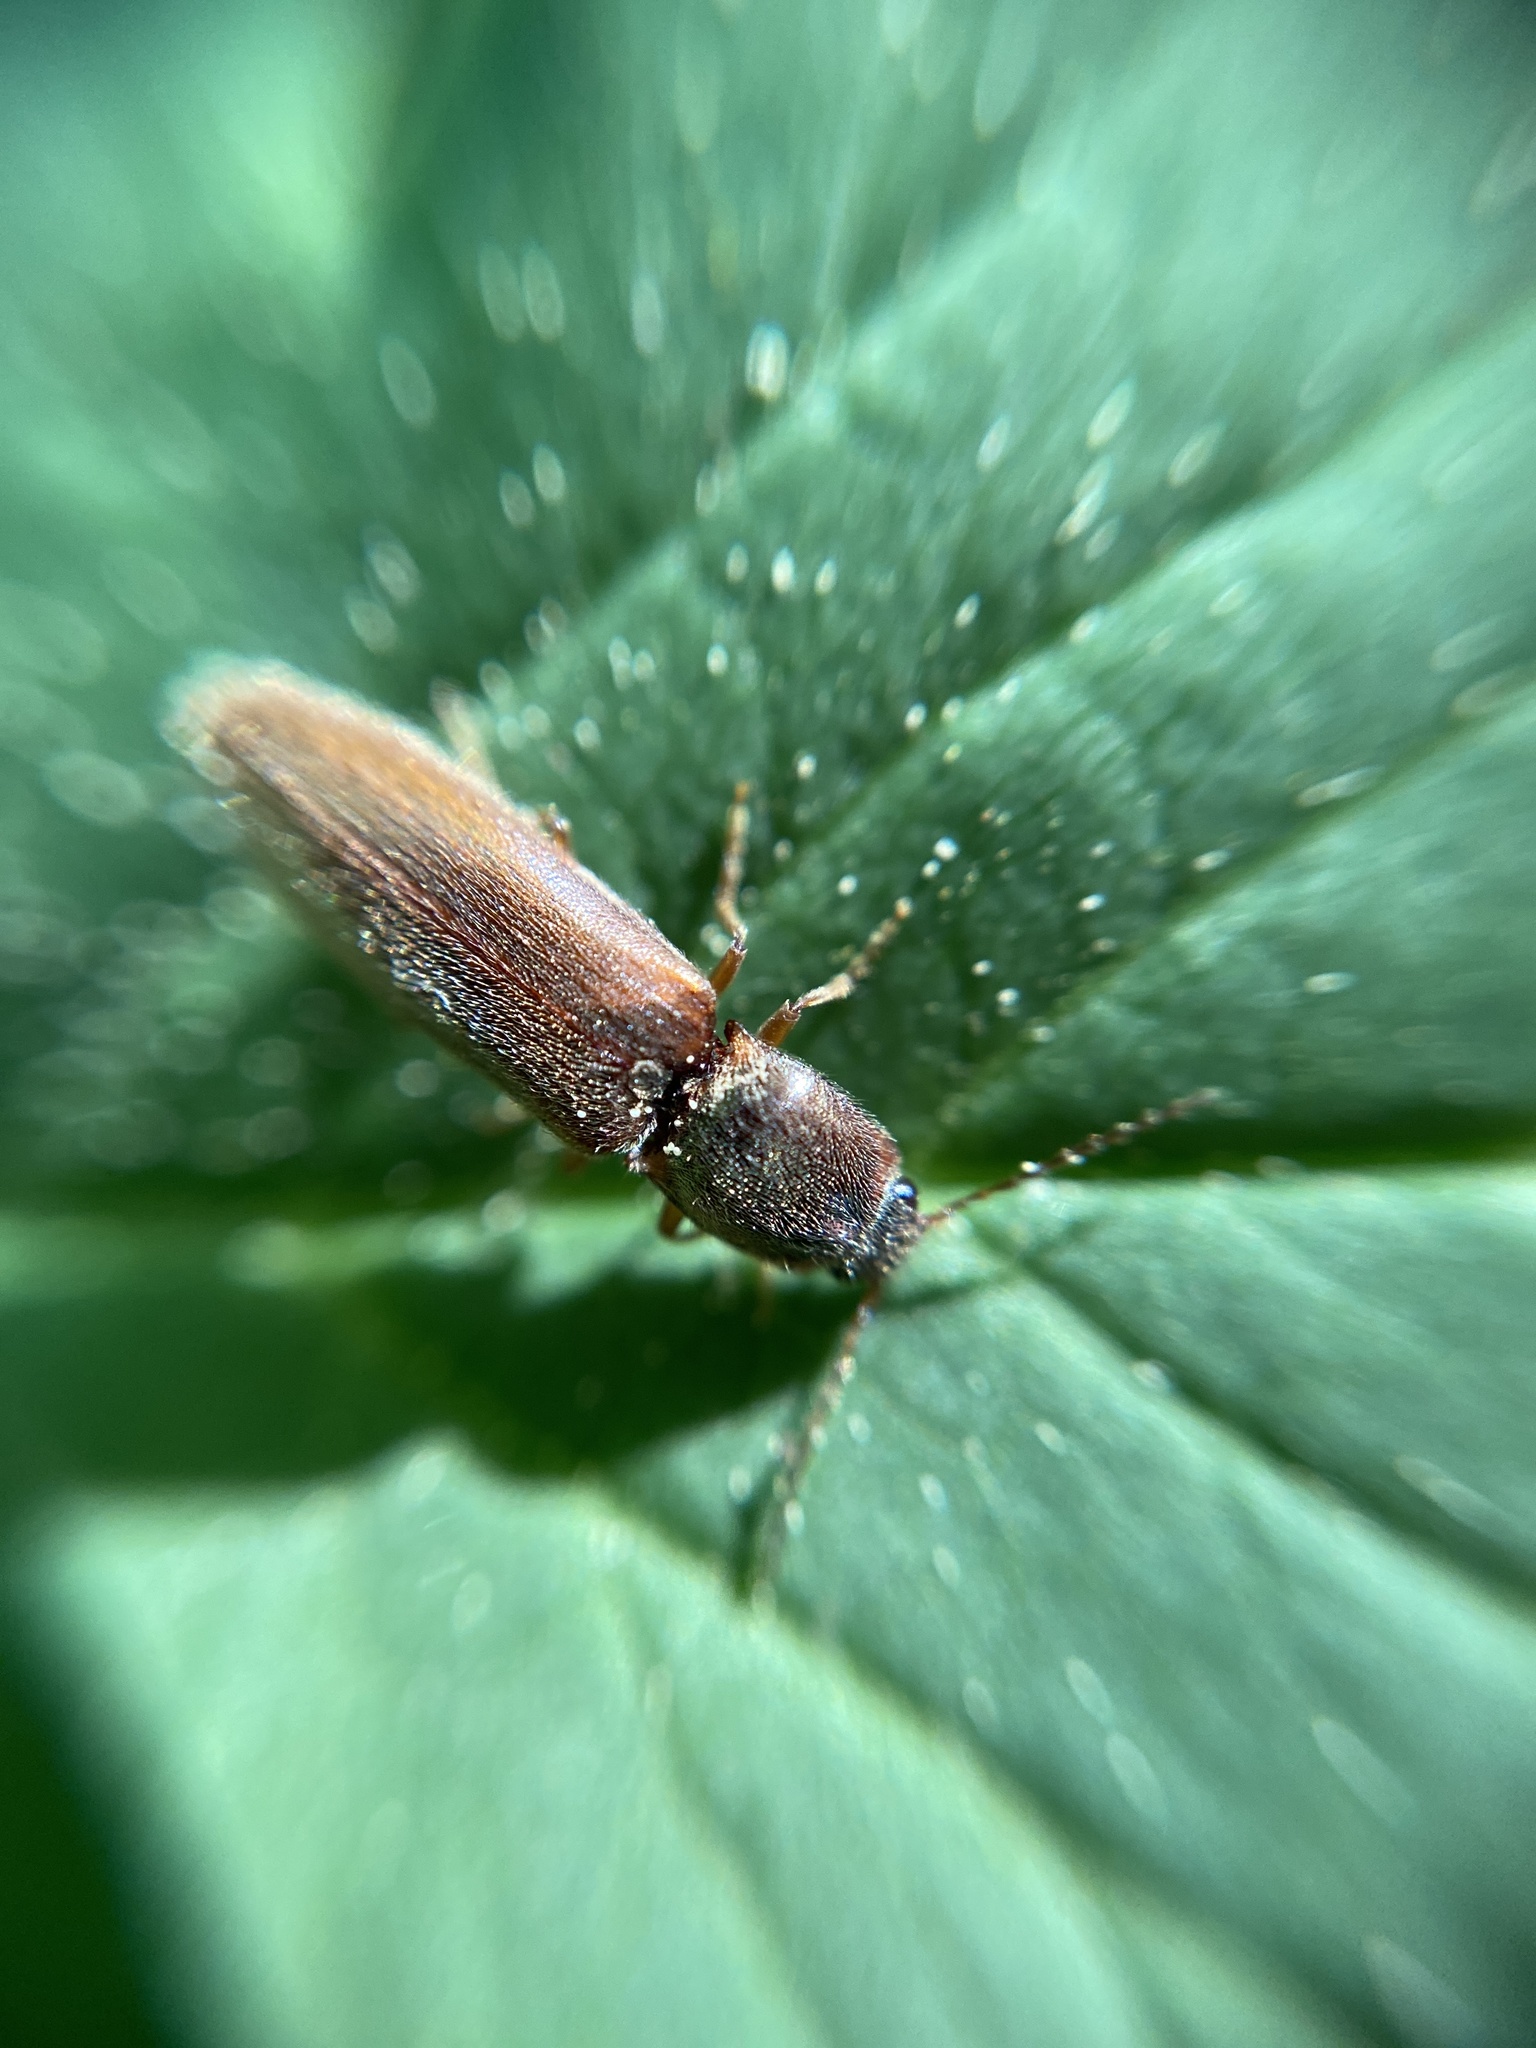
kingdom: Animalia
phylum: Arthropoda
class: Insecta
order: Coleoptera
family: Elateridae
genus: Athous
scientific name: Athous subfuscus
